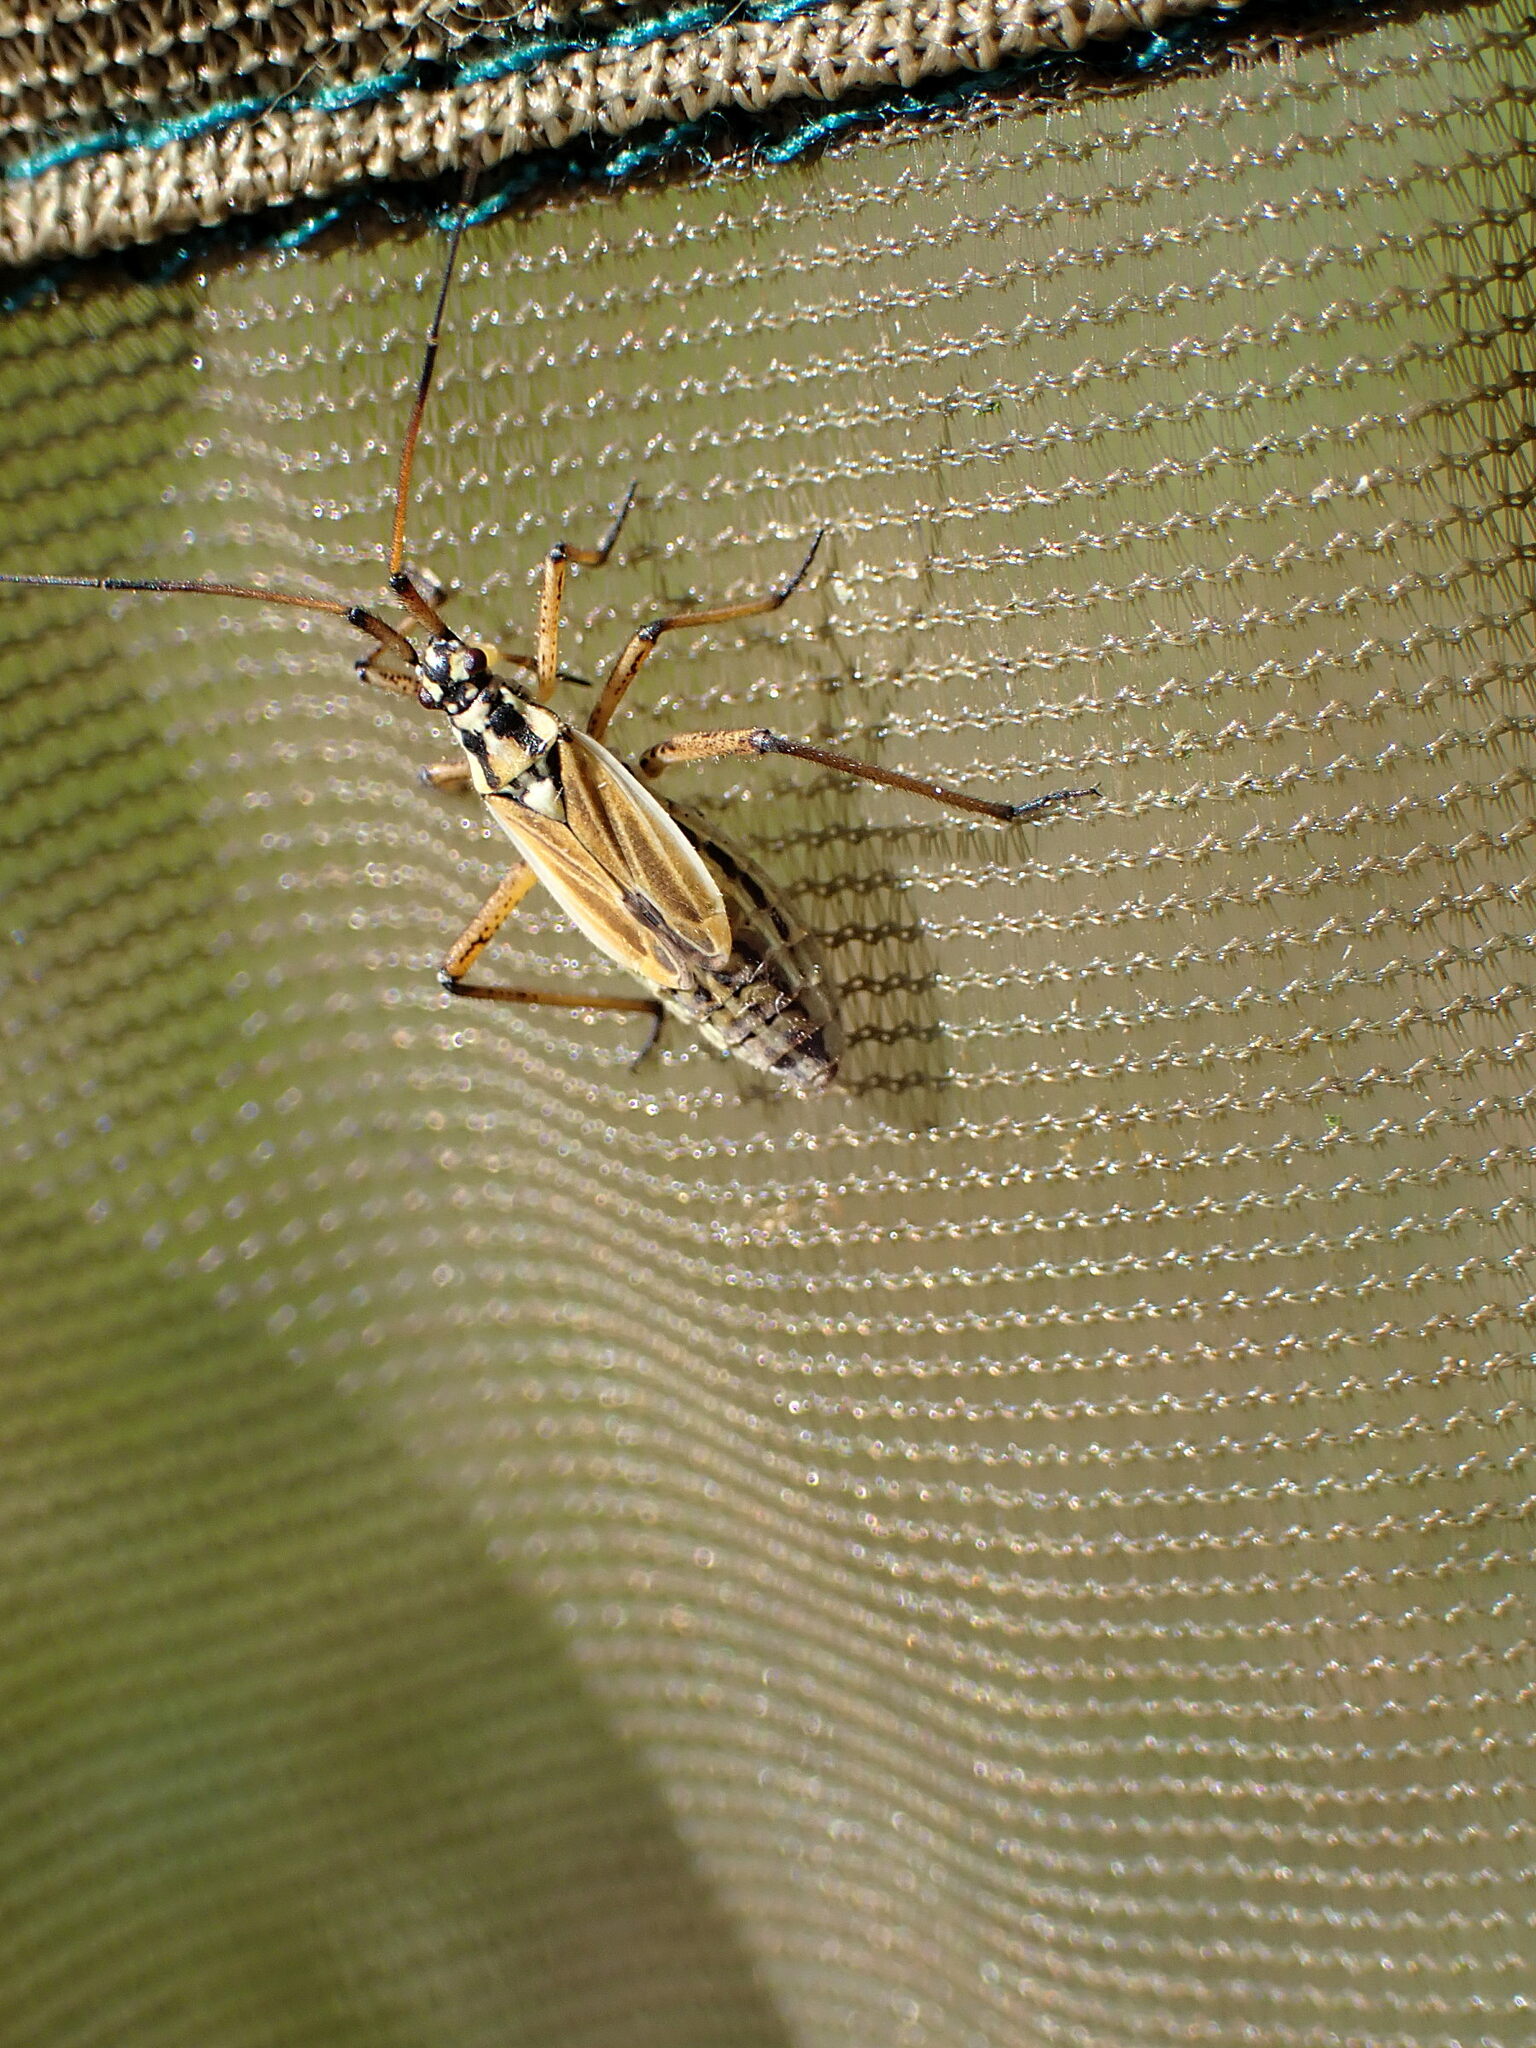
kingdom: Animalia
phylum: Arthropoda
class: Insecta
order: Hemiptera
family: Miridae
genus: Leptopterna
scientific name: Leptopterna dolabrata
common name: Meadow plant bug
